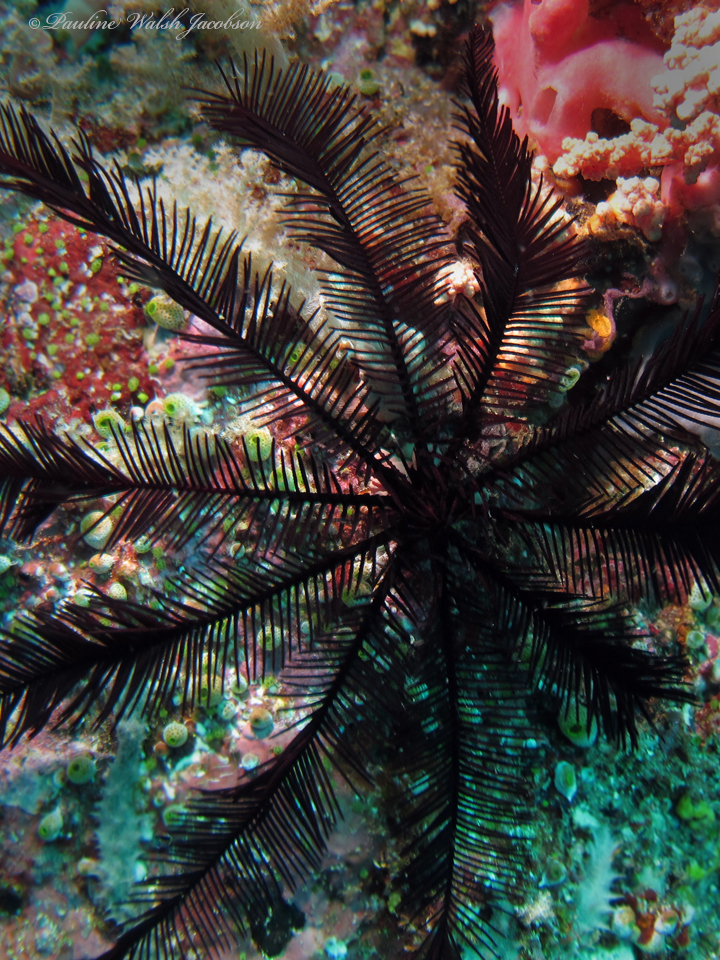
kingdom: Animalia
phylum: Echinodermata
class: Crinoidea
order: Comatulida
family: Colobometridae
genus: Colobometra
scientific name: Colobometra perspinosa
